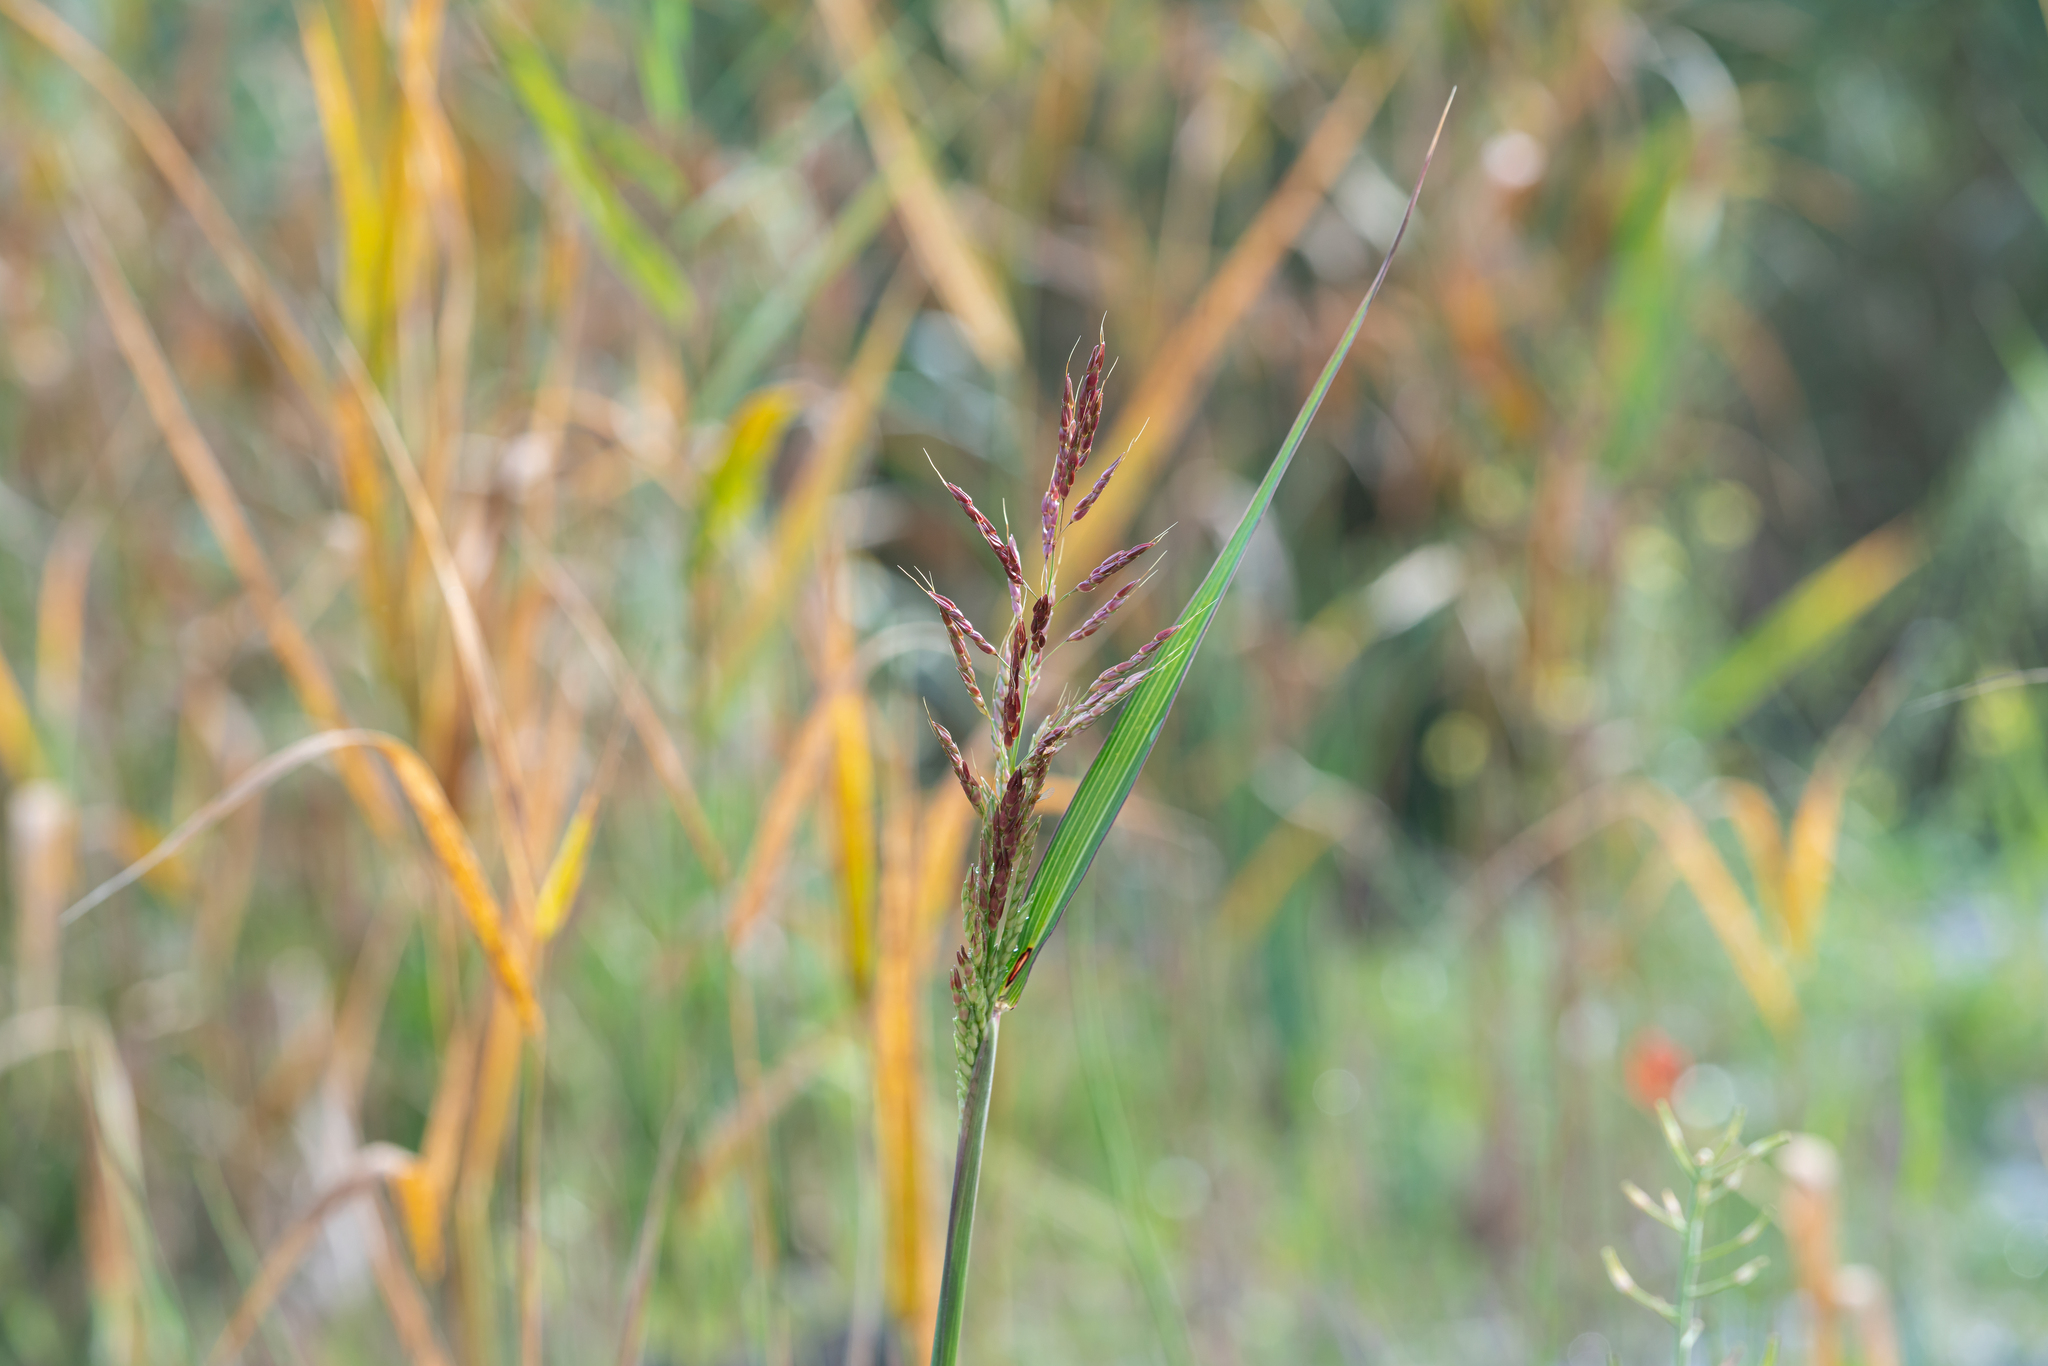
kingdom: Plantae
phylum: Tracheophyta
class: Liliopsida
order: Poales
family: Poaceae
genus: Sorghum
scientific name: Sorghum halepense
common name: Johnson-grass
